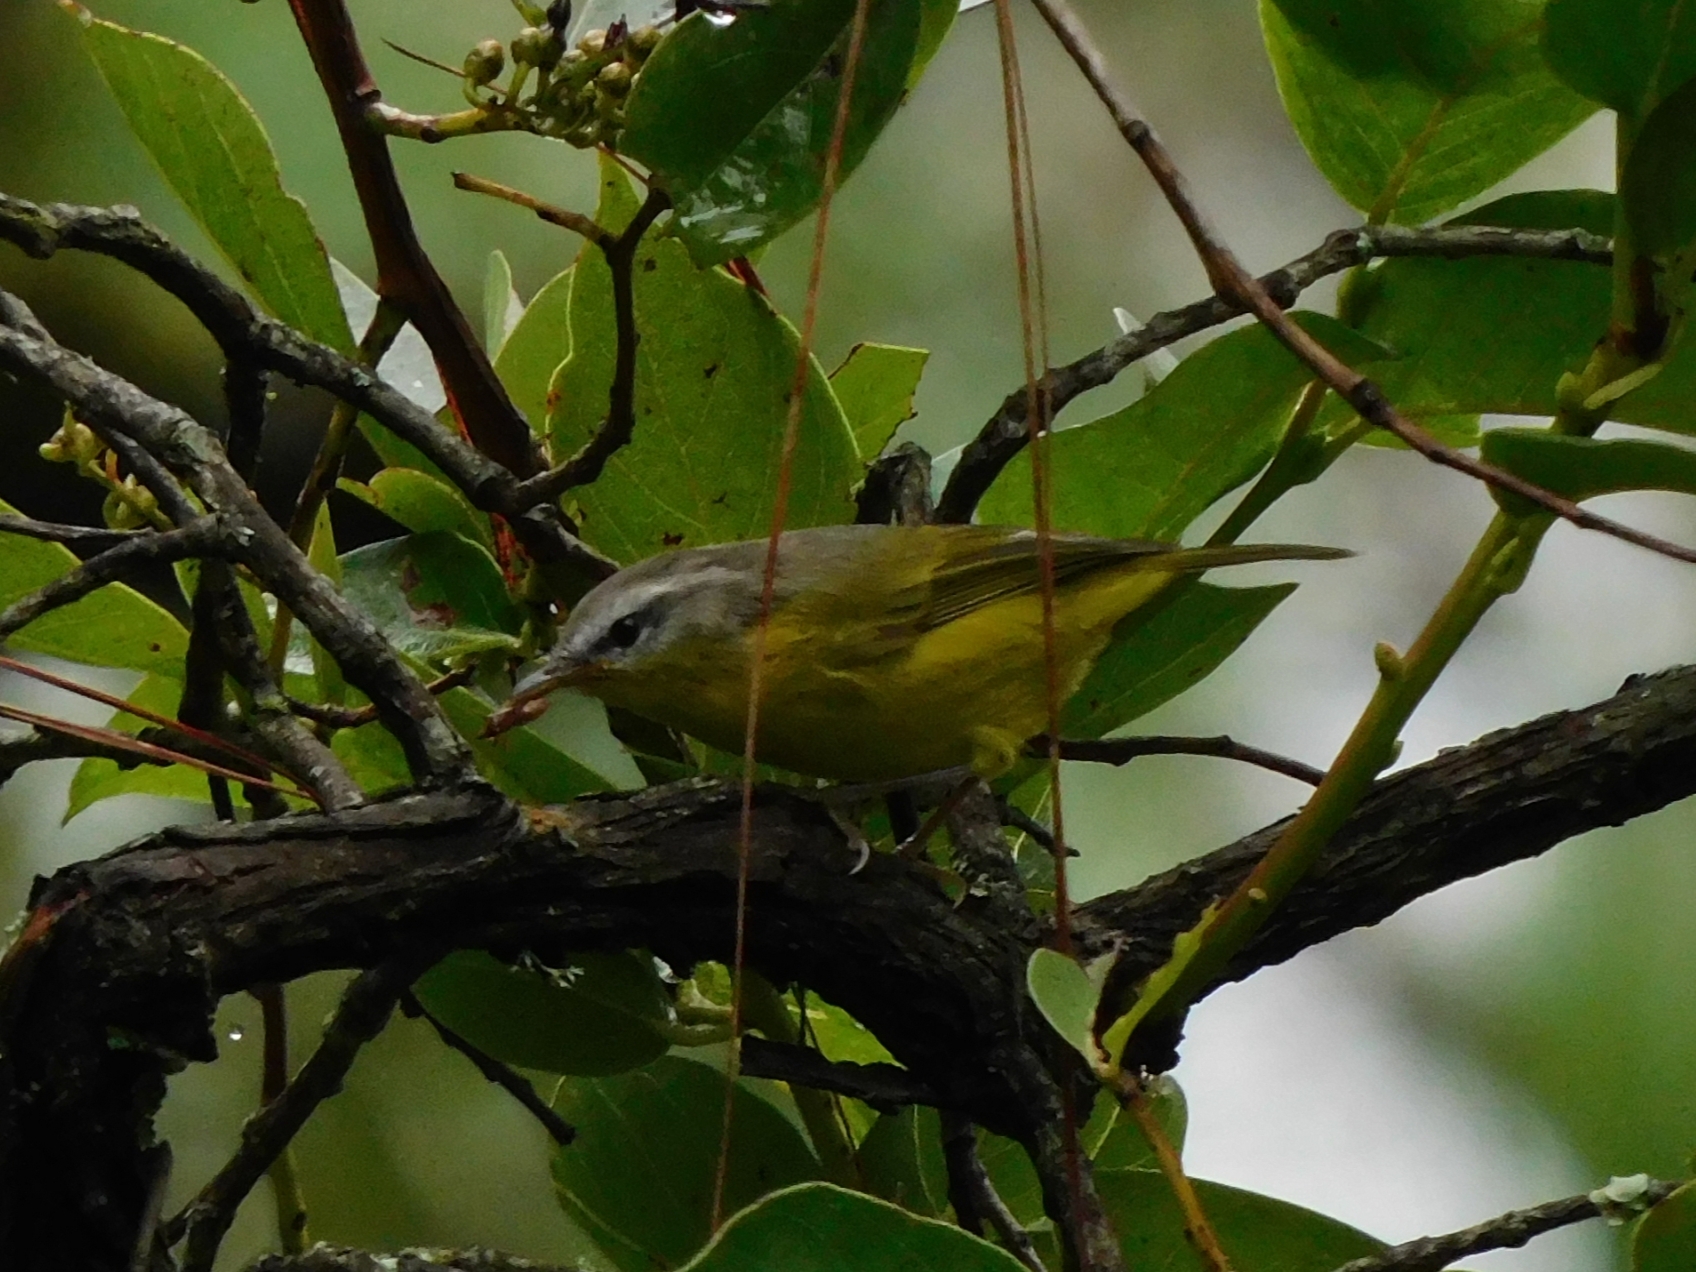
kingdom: Animalia
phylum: Chordata
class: Aves
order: Passeriformes
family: Phylloscopidae
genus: Phylloscopus
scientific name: Phylloscopus xanthoschistos
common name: Grey-hooded warbler
